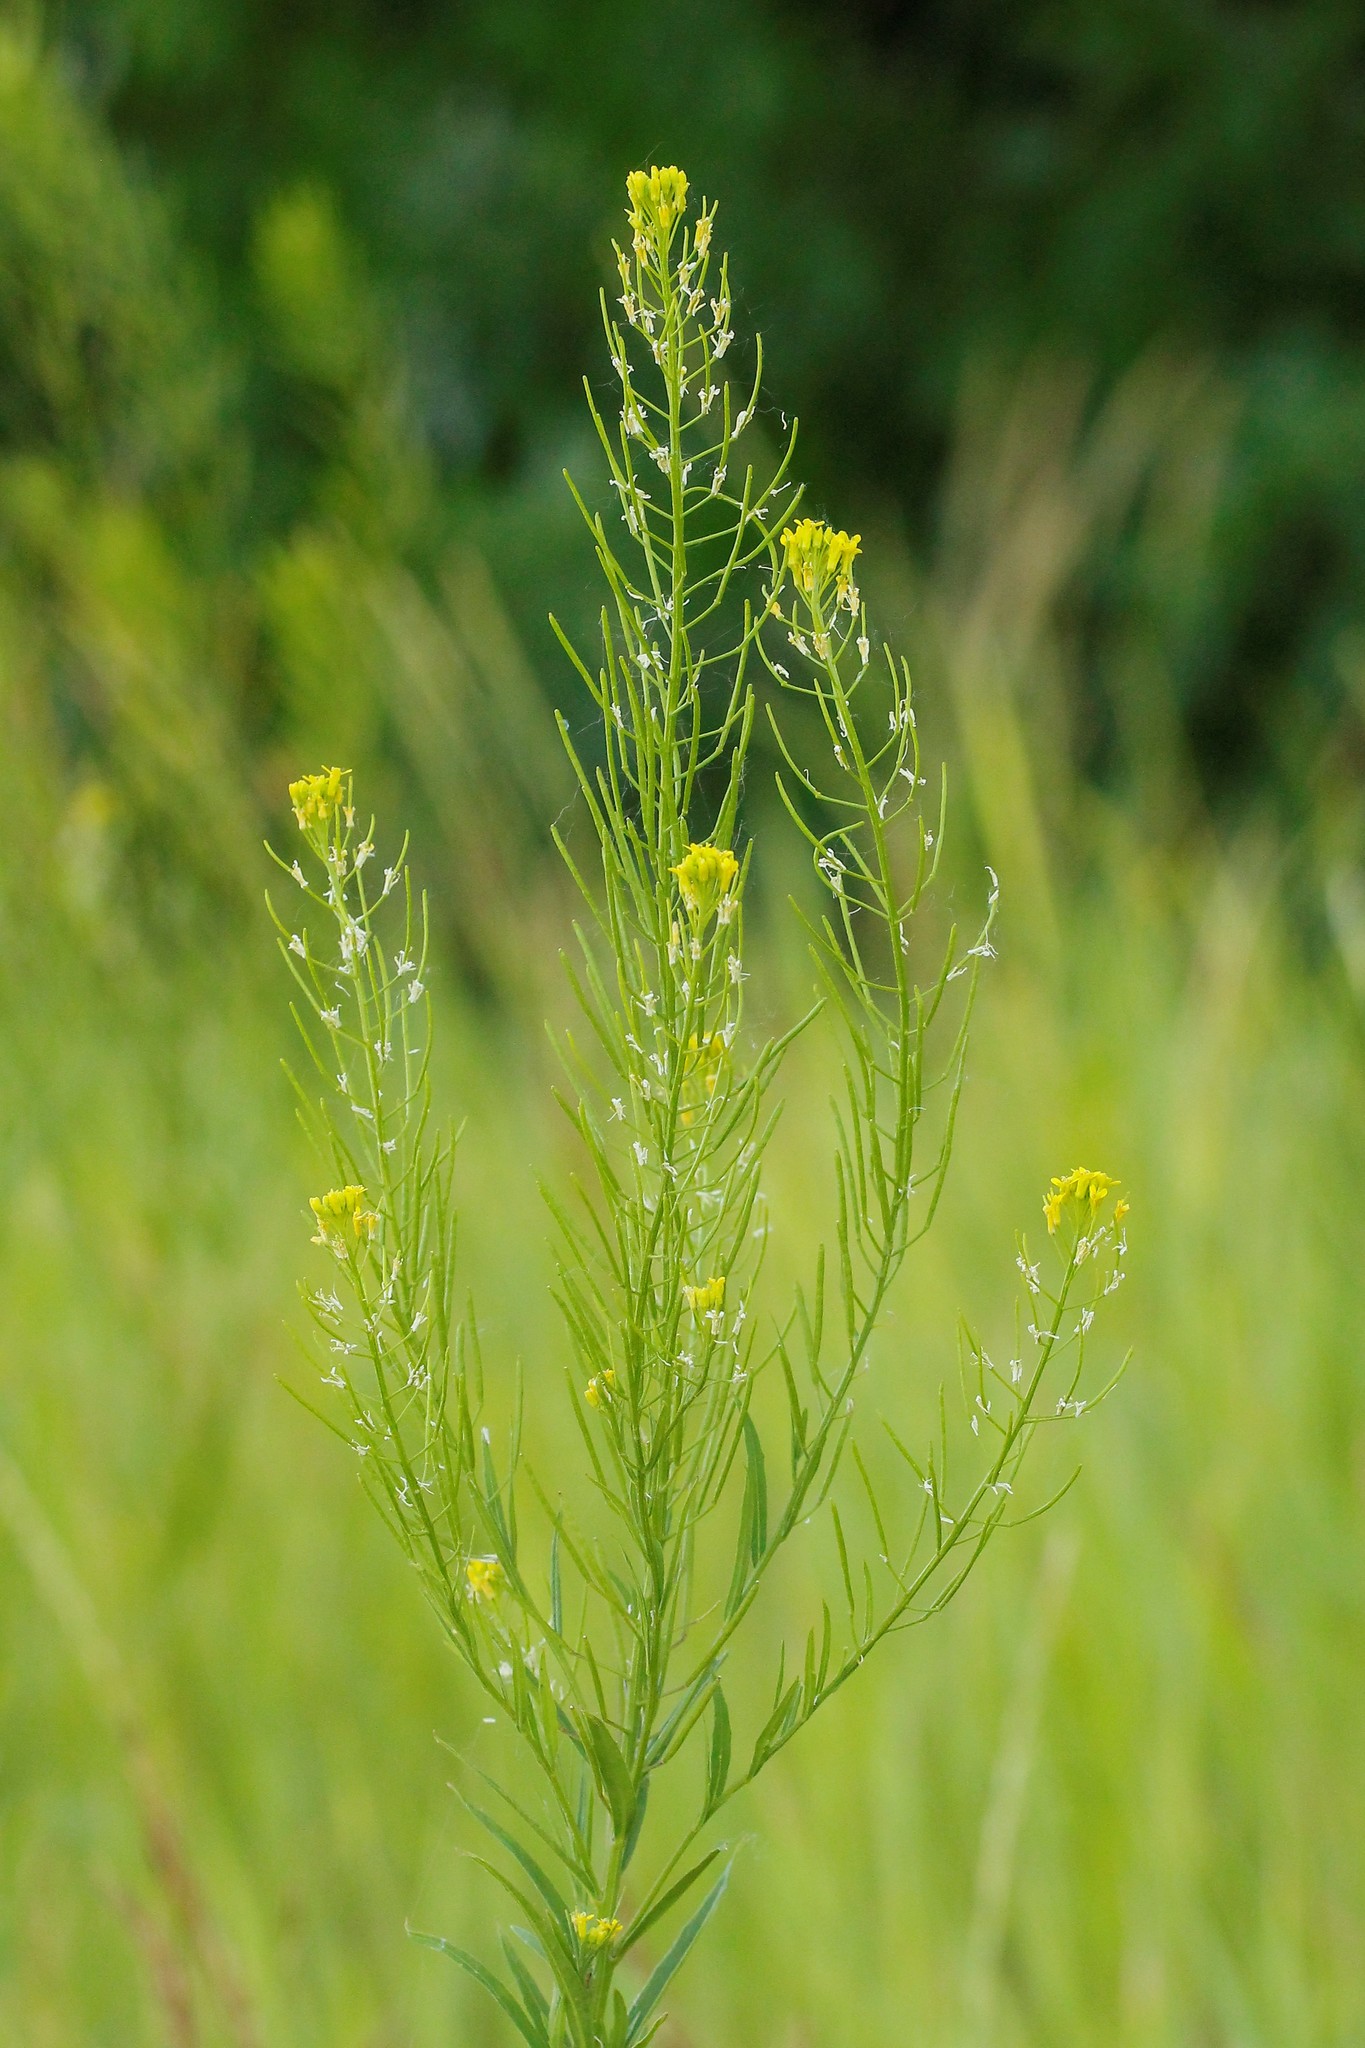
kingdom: Plantae
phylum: Tracheophyta
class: Magnoliopsida
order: Brassicales
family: Brassicaceae
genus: Erysimum
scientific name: Erysimum cheiranthoides
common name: Treacle mustard
